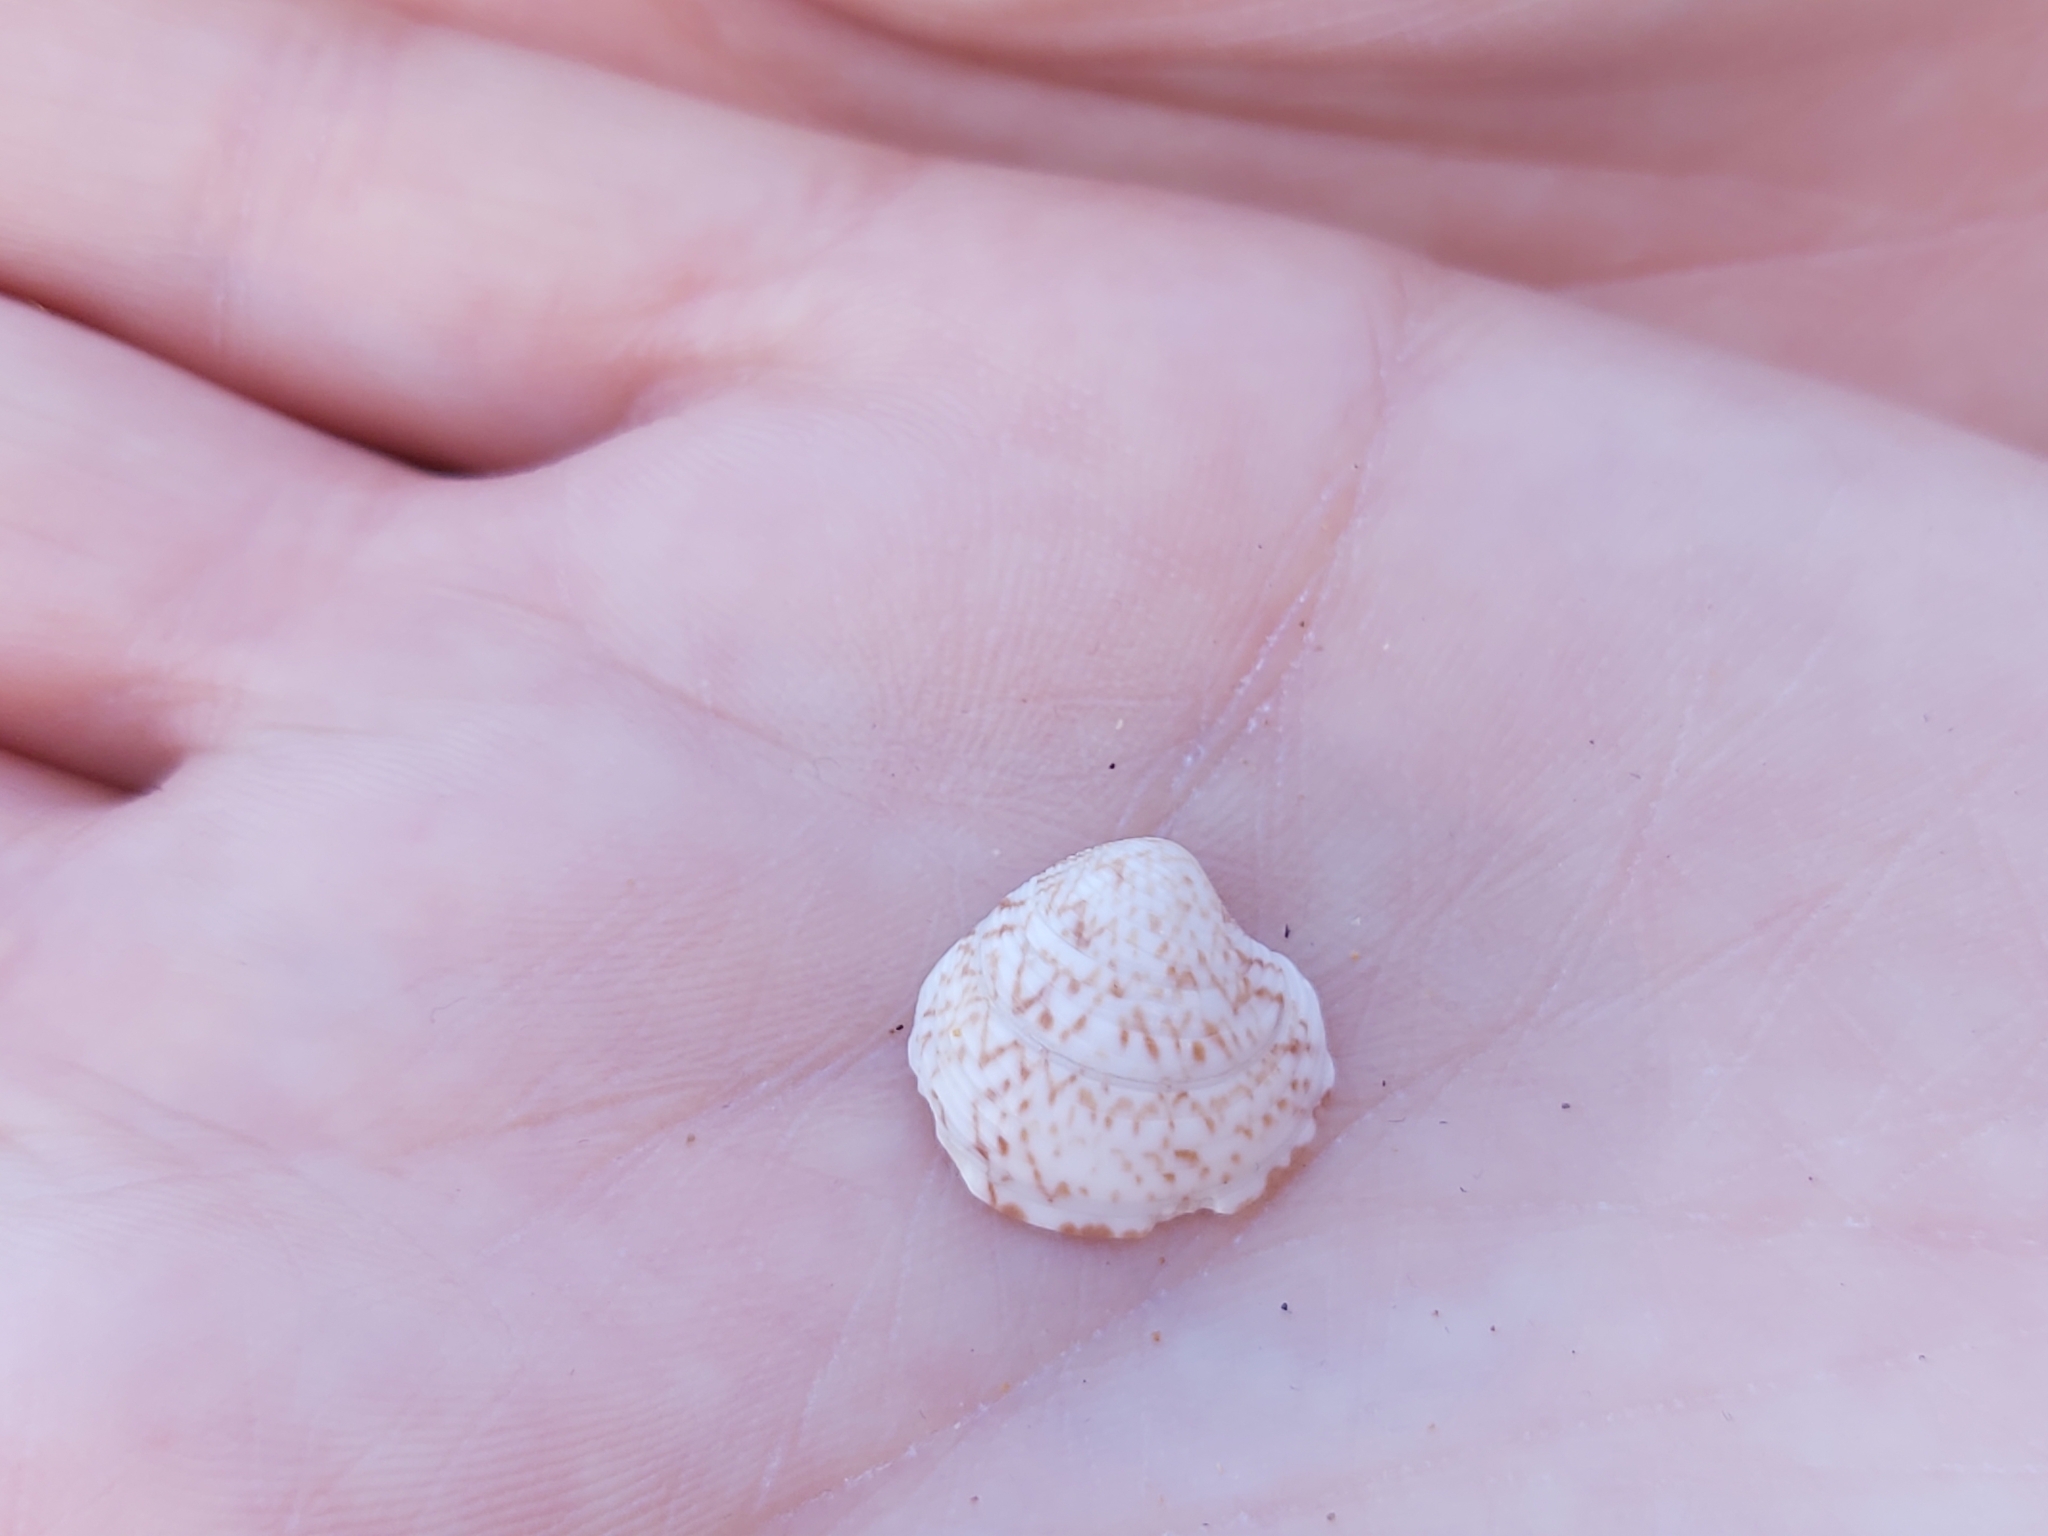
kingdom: Animalia
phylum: Mollusca
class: Bivalvia
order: Venerida
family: Veneridae
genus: Chamelea
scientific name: Chamelea gallina
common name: Chicken venus
